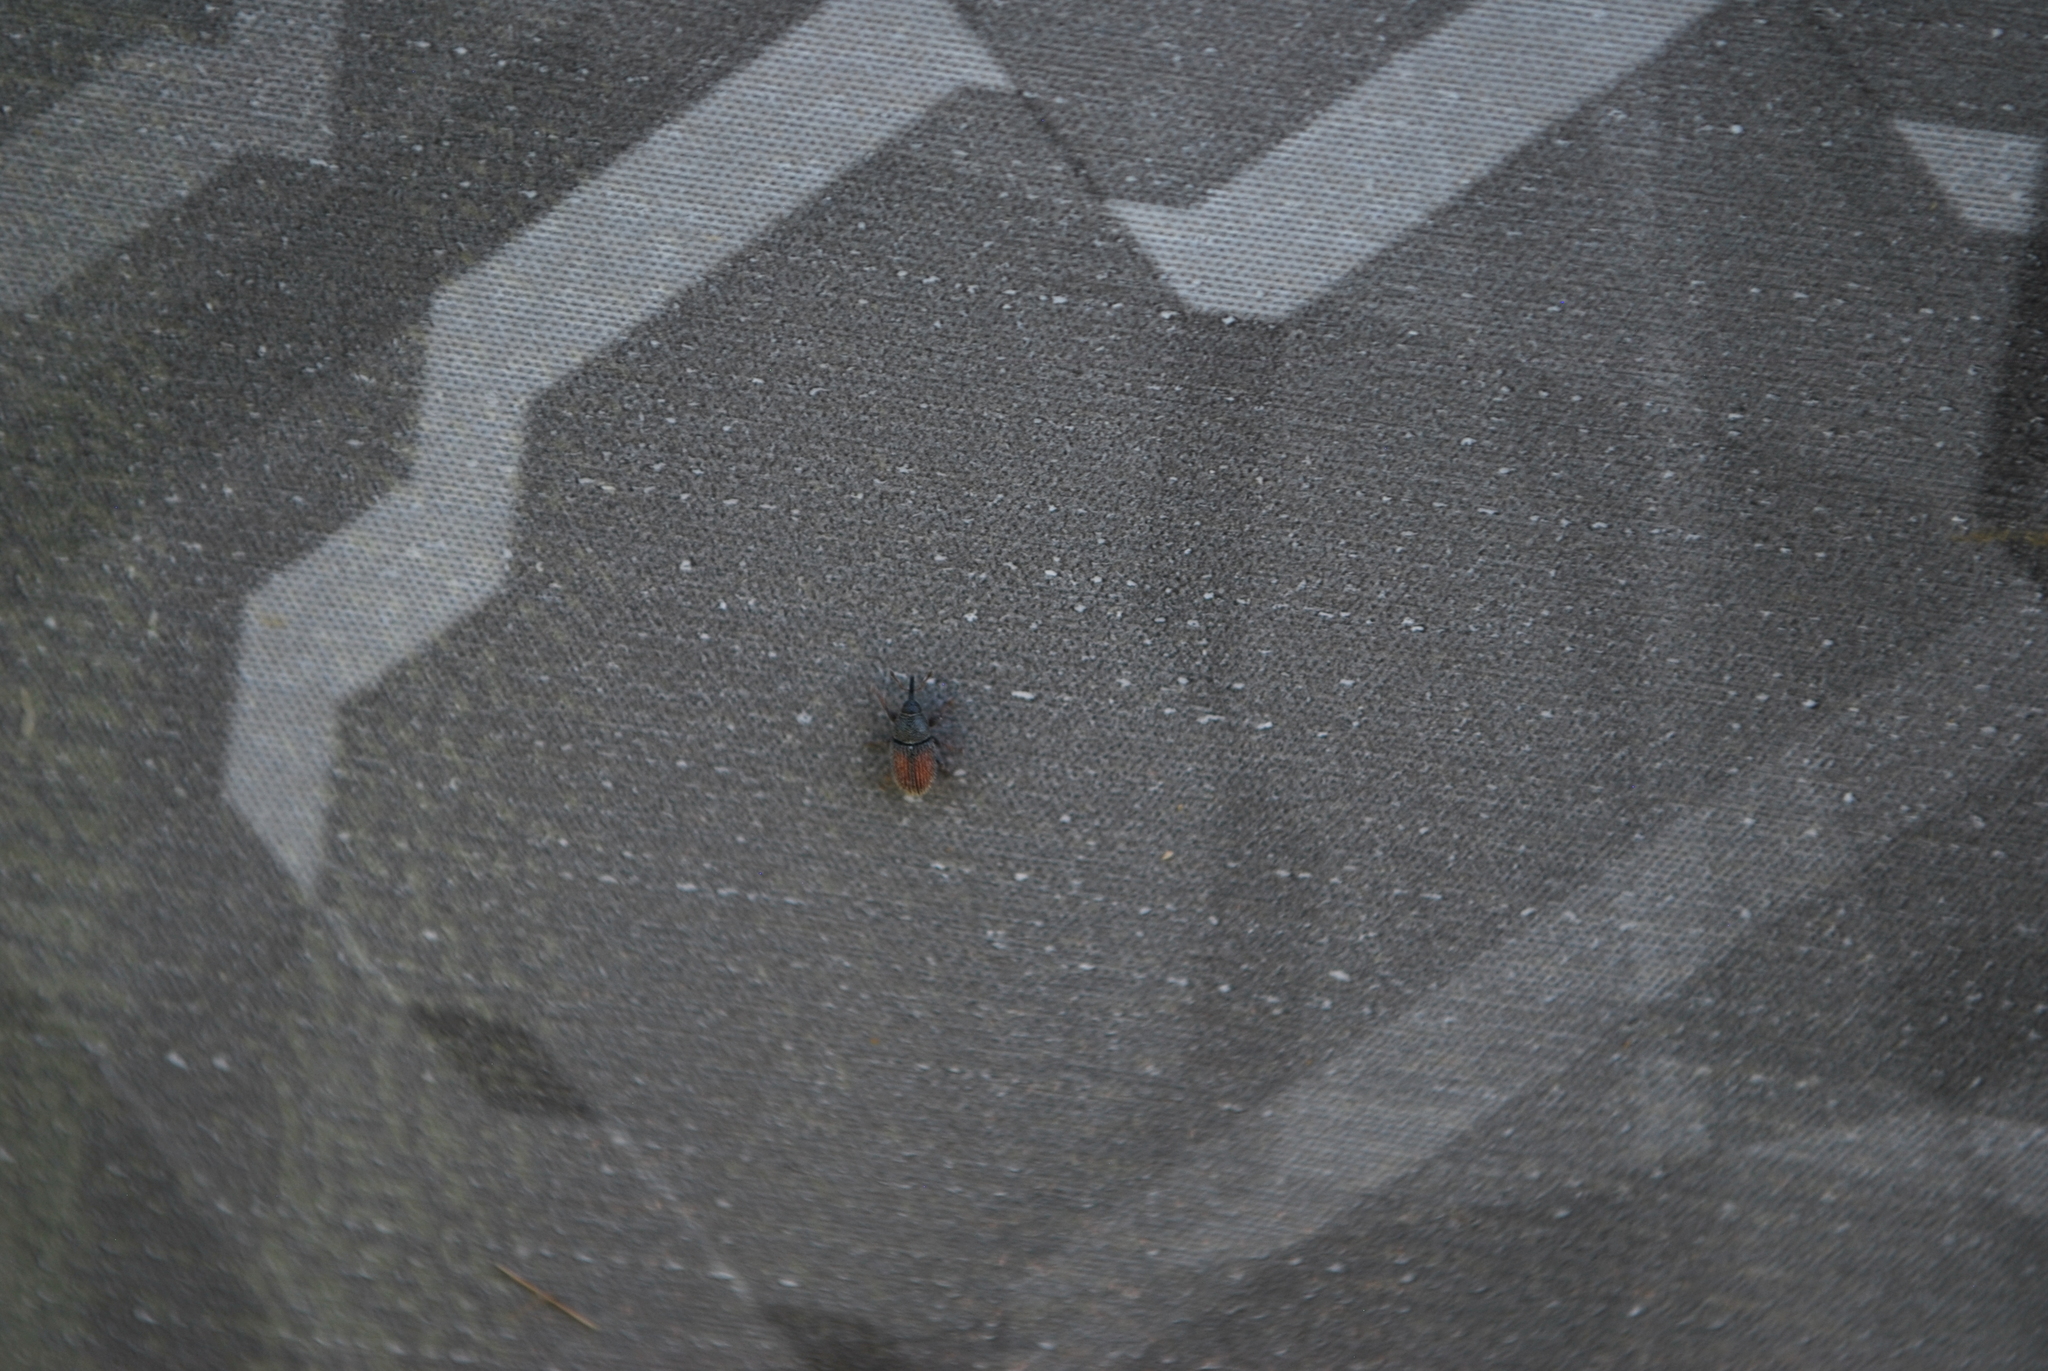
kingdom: Animalia
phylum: Arthropoda
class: Insecta
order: Coleoptera
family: Curculionidae
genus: Mecinus
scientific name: Mecinus pascuorum
